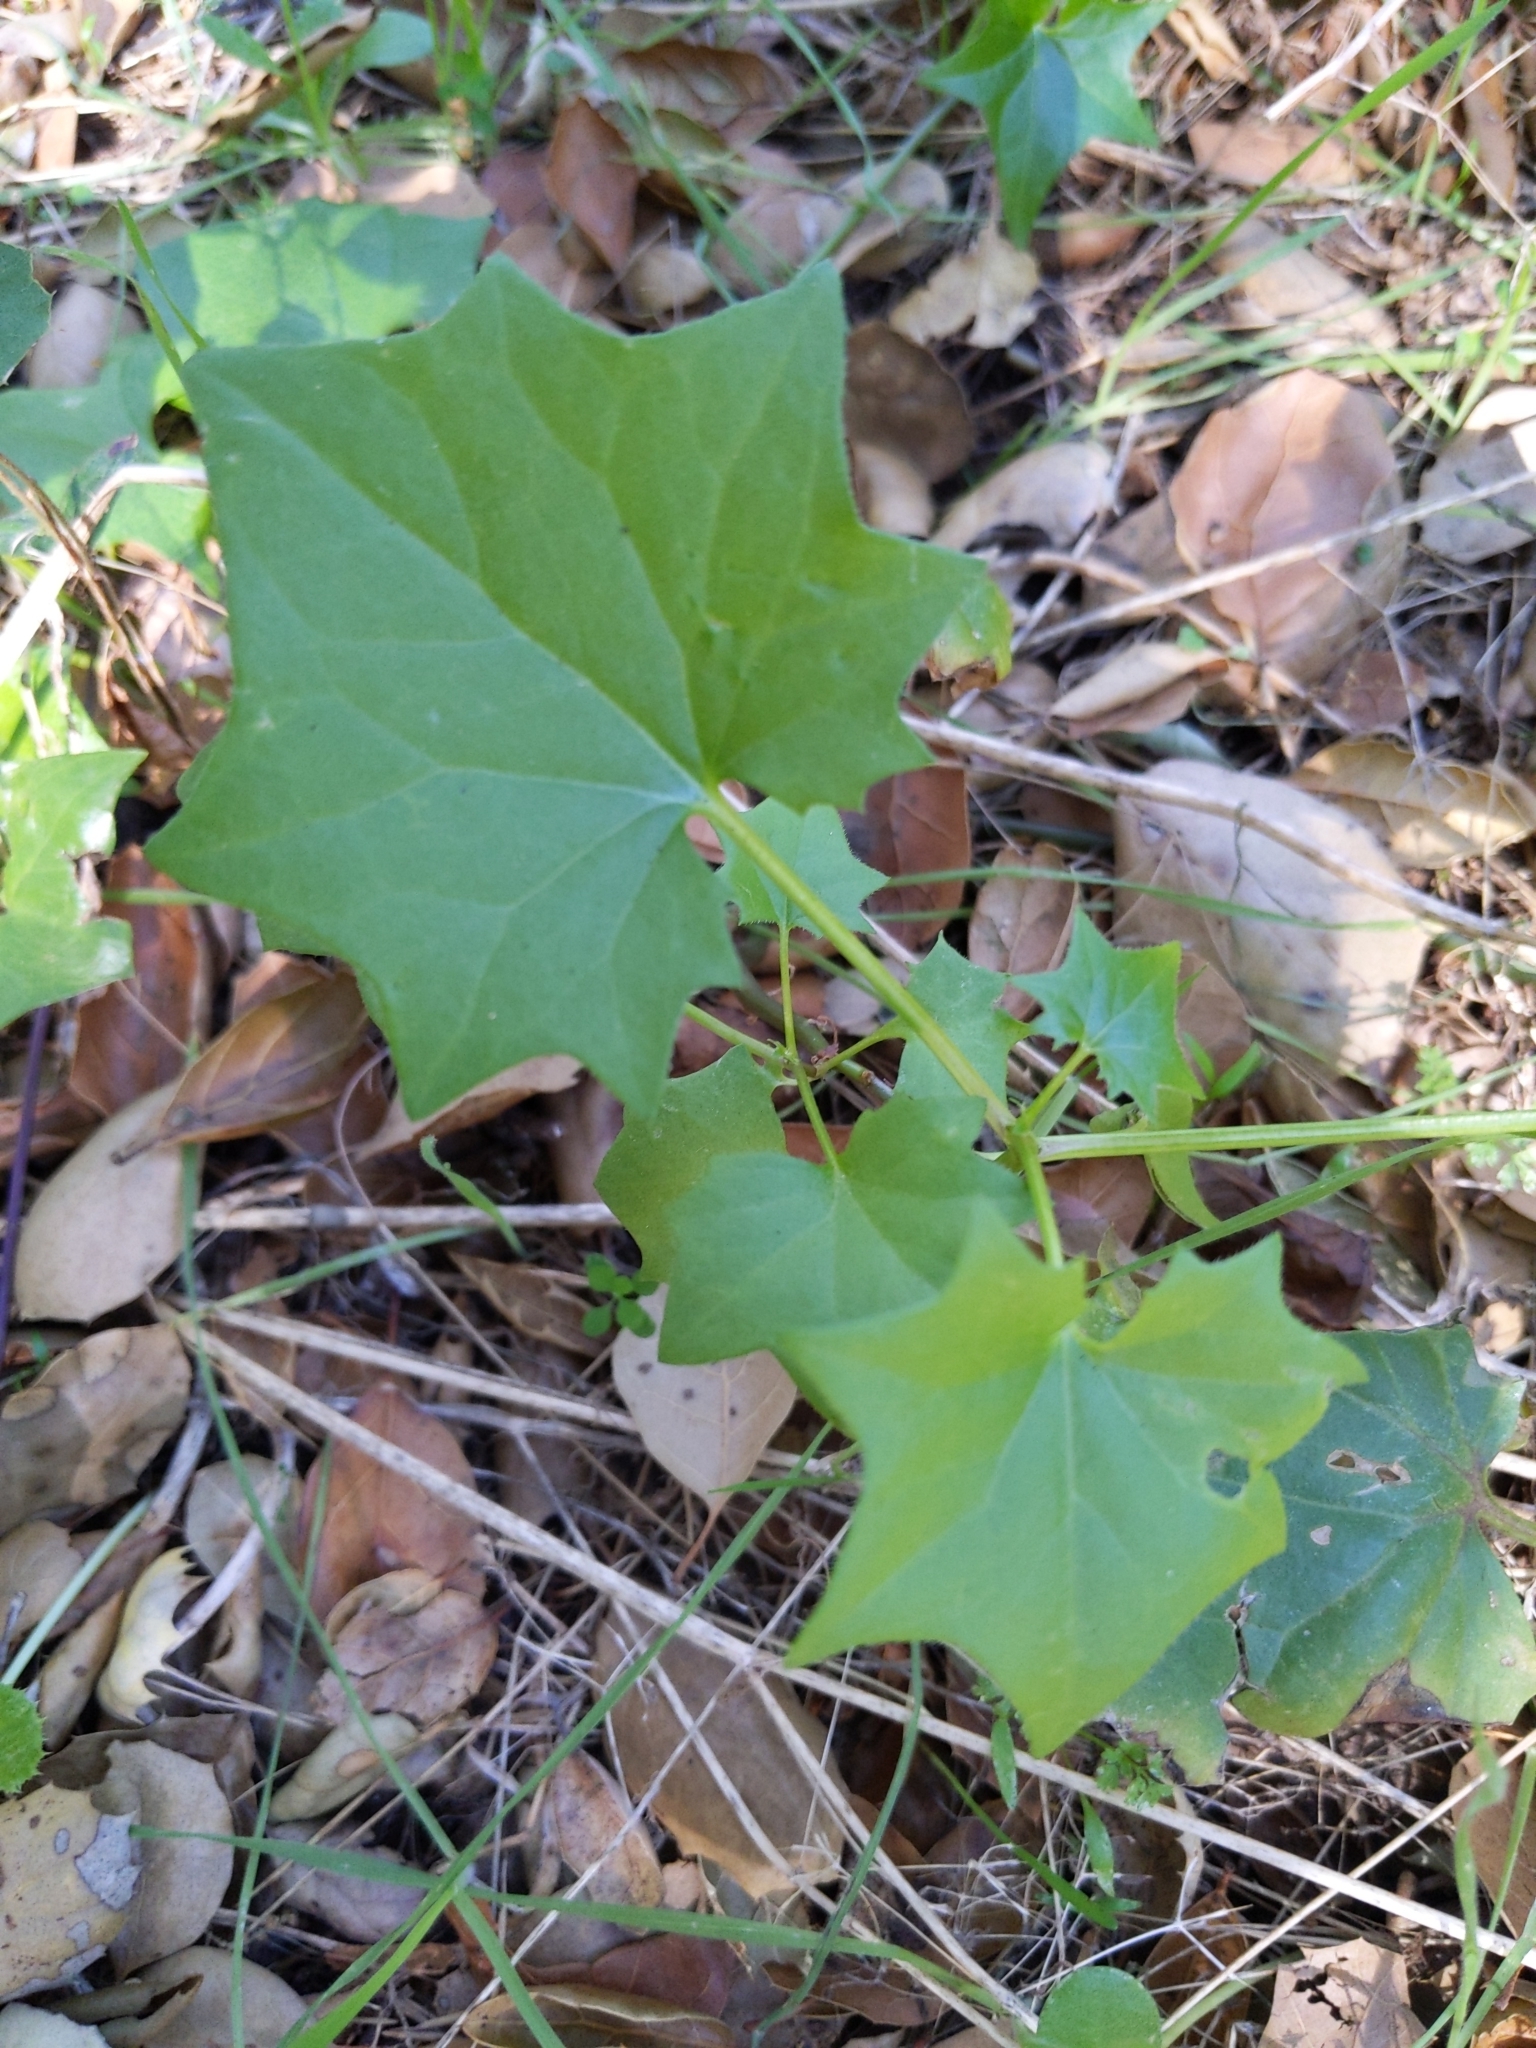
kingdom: Plantae
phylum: Tracheophyta
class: Magnoliopsida
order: Asterales
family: Asteraceae
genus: Delairea
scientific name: Delairea odorata
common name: Cape-ivy
